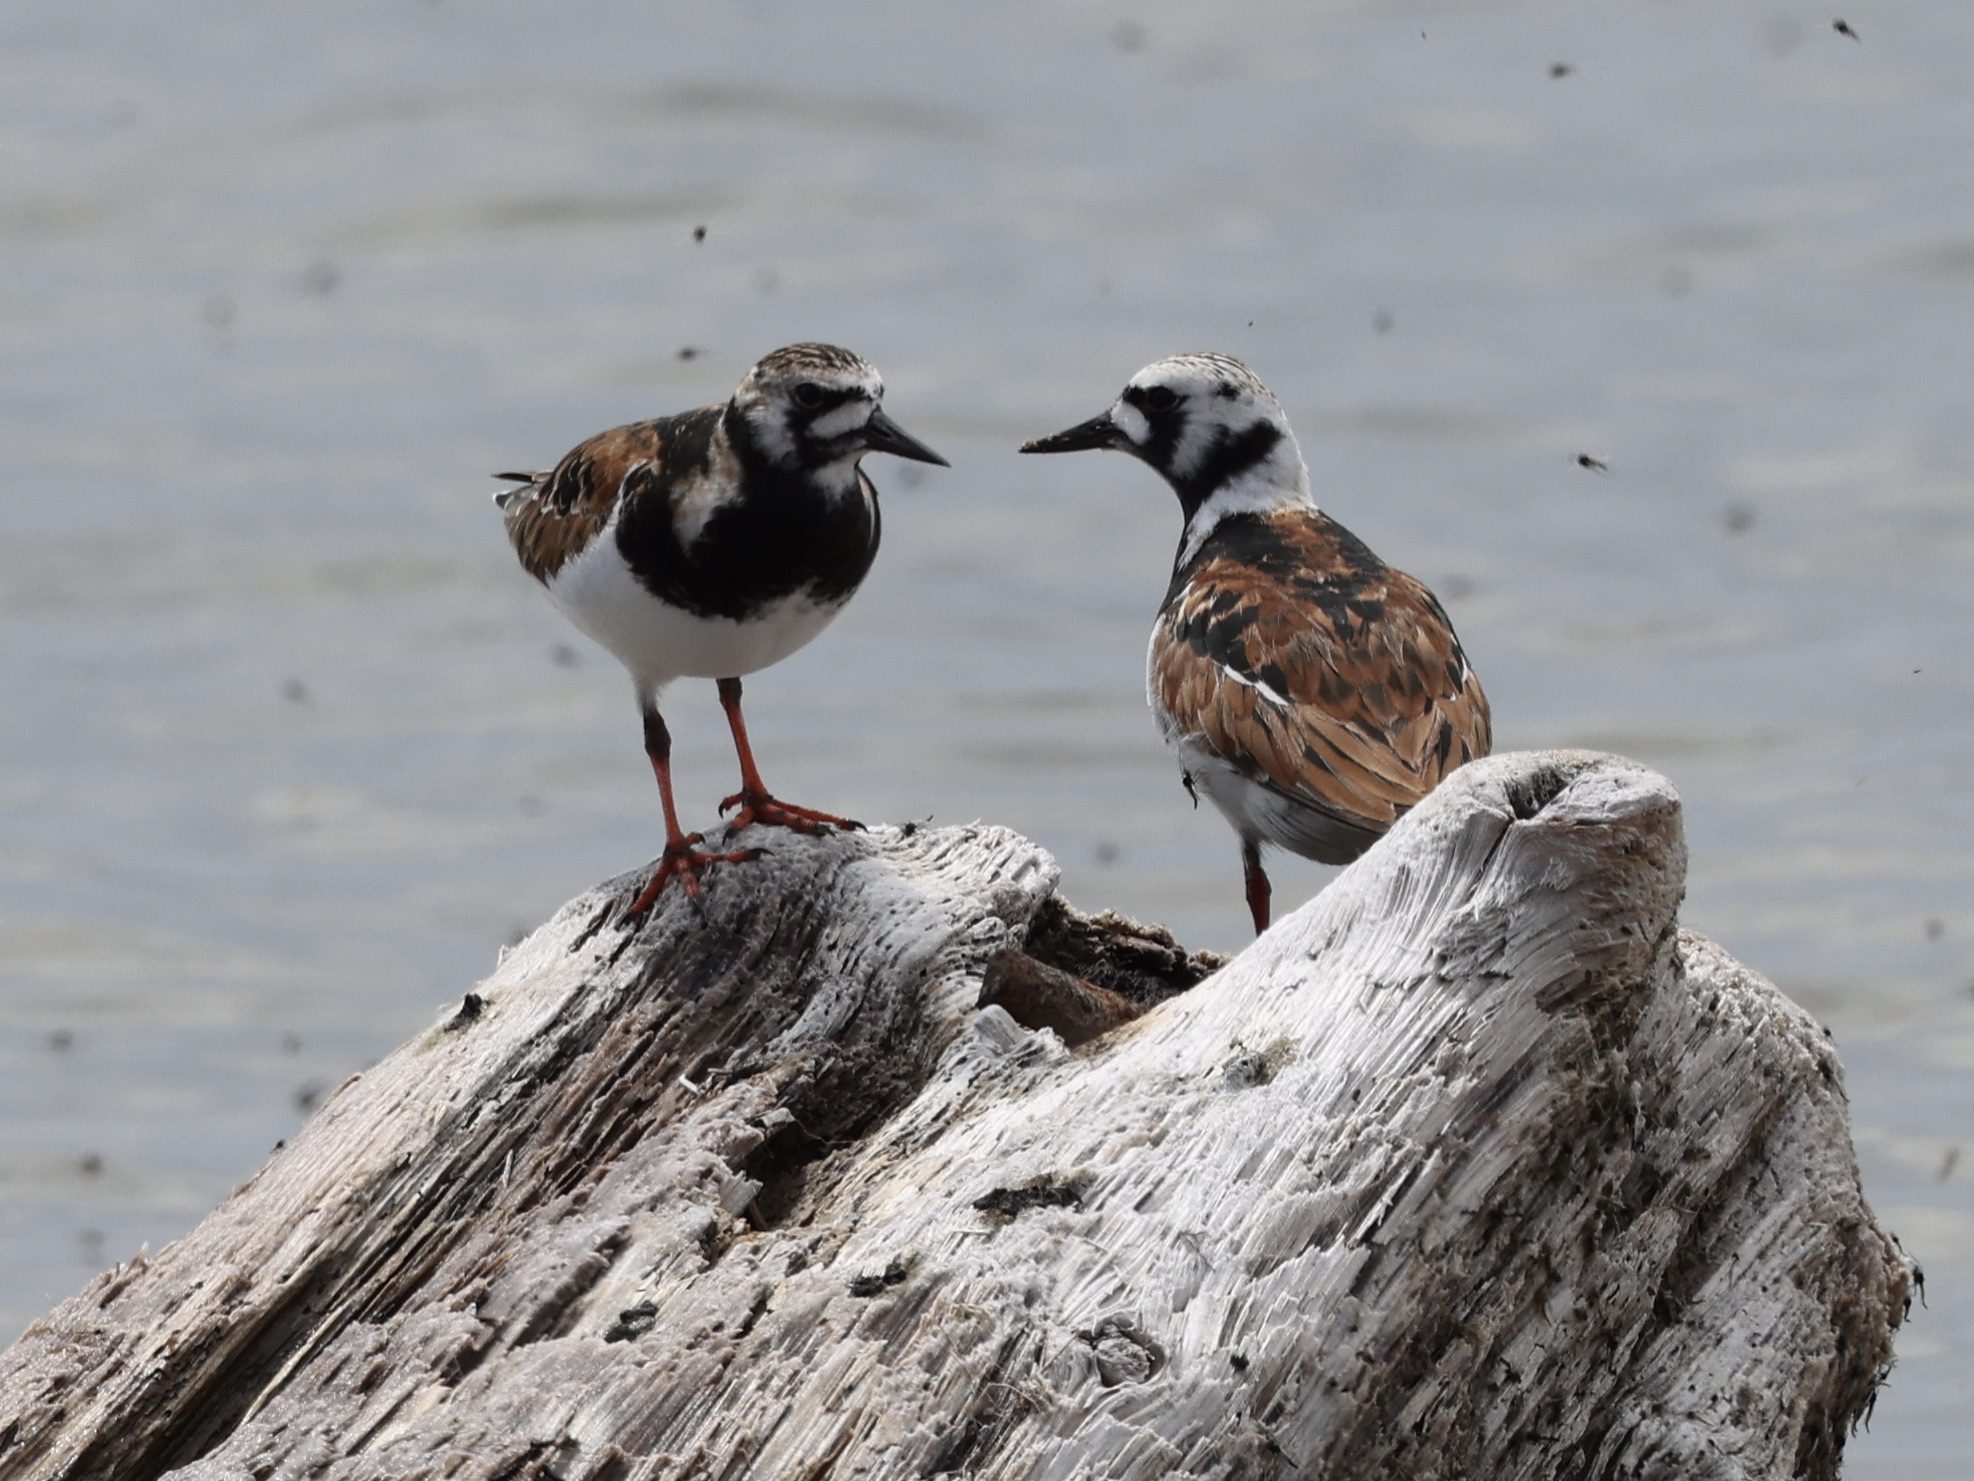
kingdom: Animalia
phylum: Chordata
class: Aves
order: Charadriiformes
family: Scolopacidae
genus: Arenaria
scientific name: Arenaria interpres
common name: Ruddy turnstone
